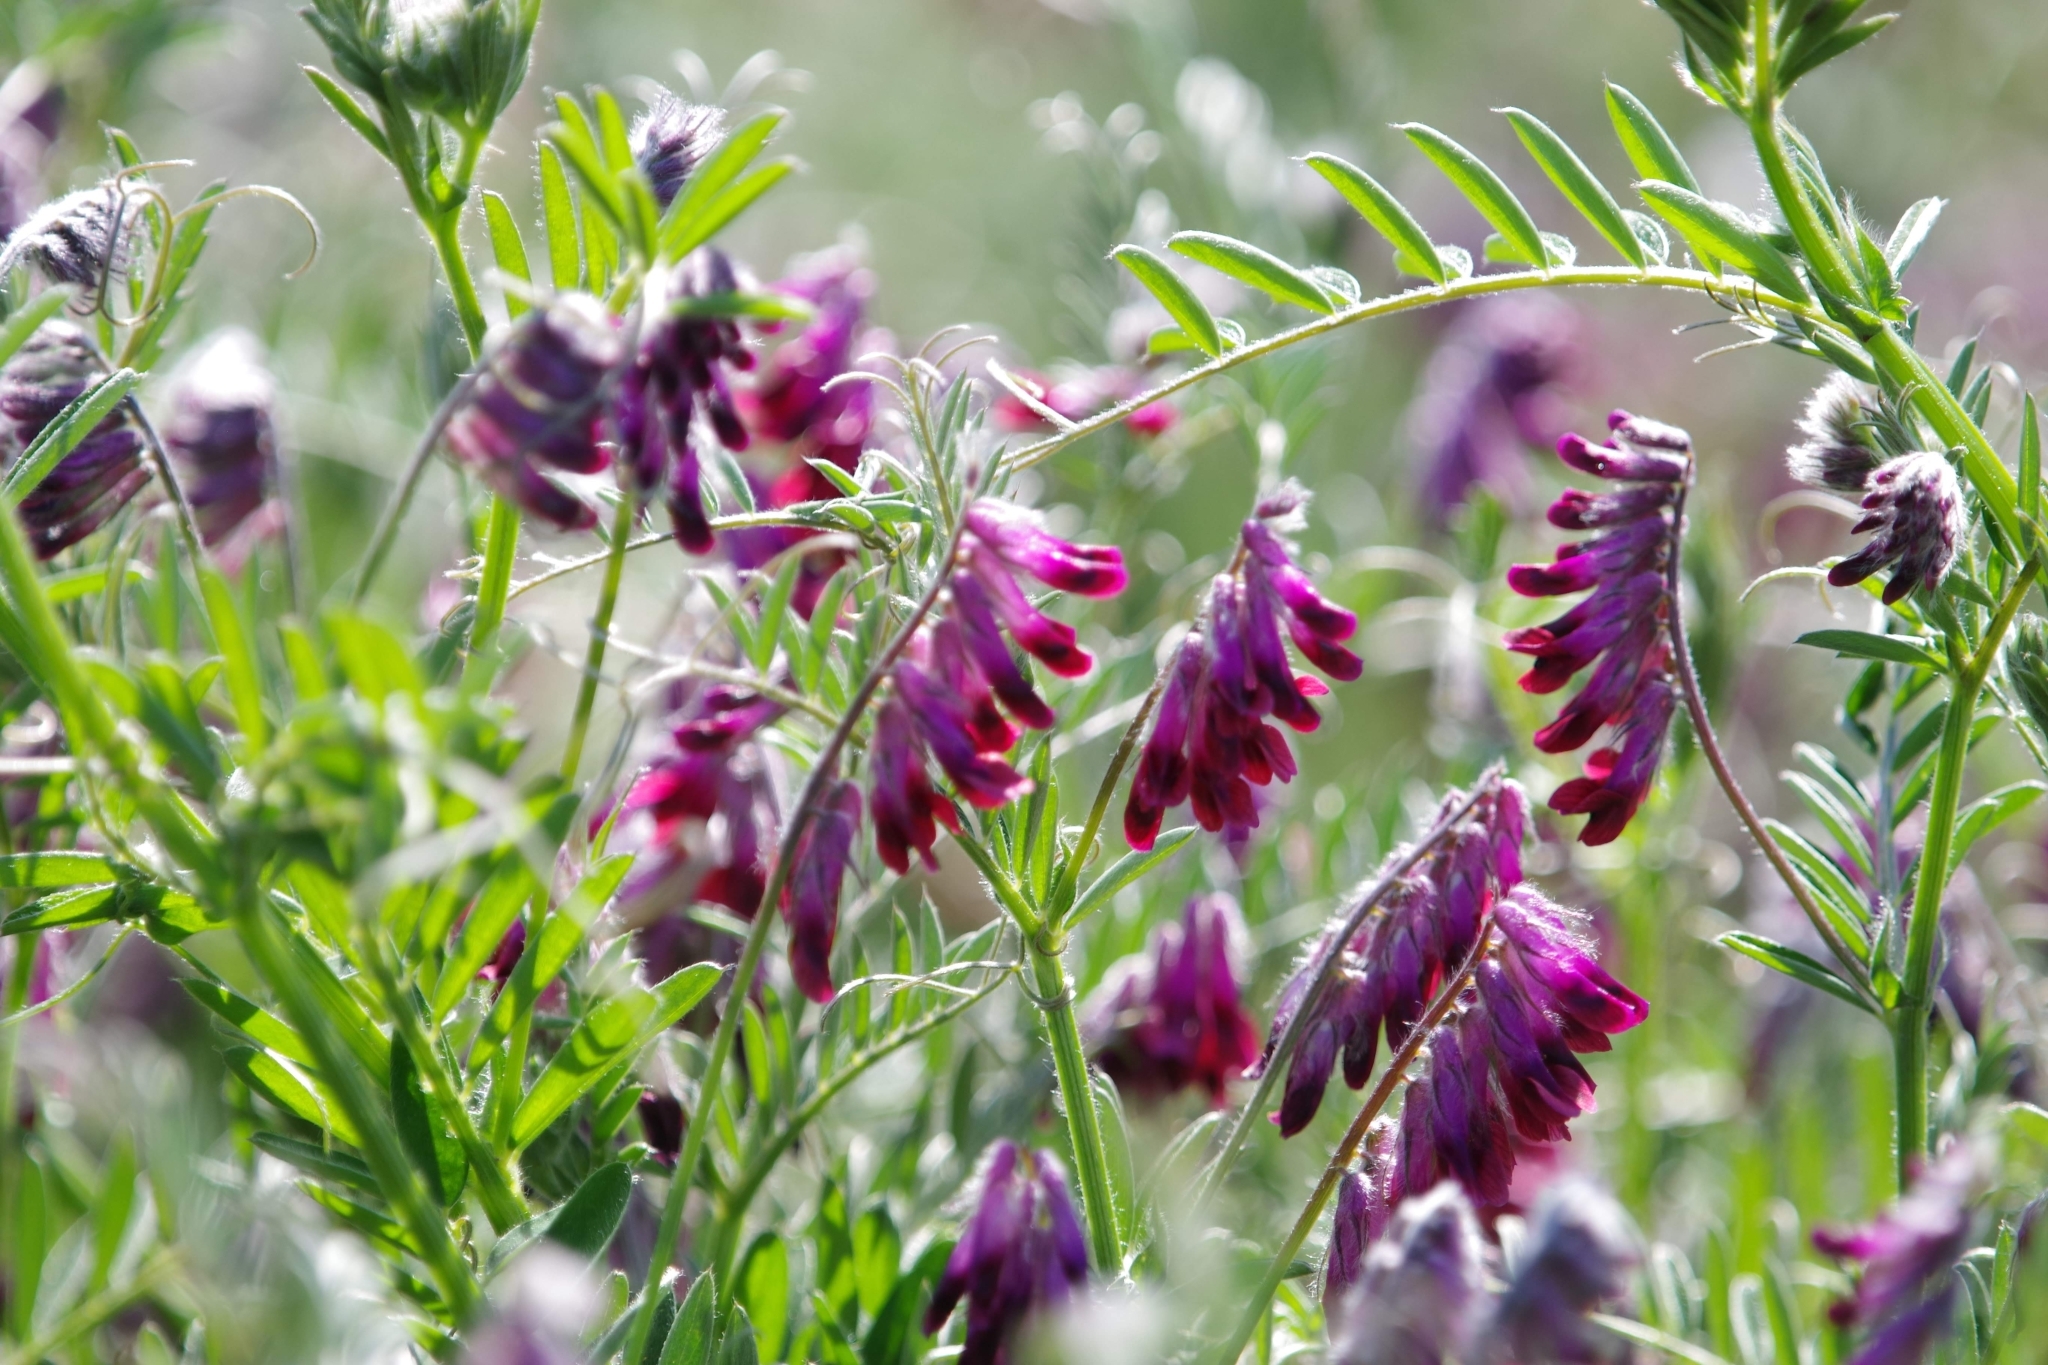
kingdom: Plantae
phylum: Tracheophyta
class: Magnoliopsida
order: Fabales
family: Fabaceae
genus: Vicia
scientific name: Vicia benghalensis
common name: Purple vetch
